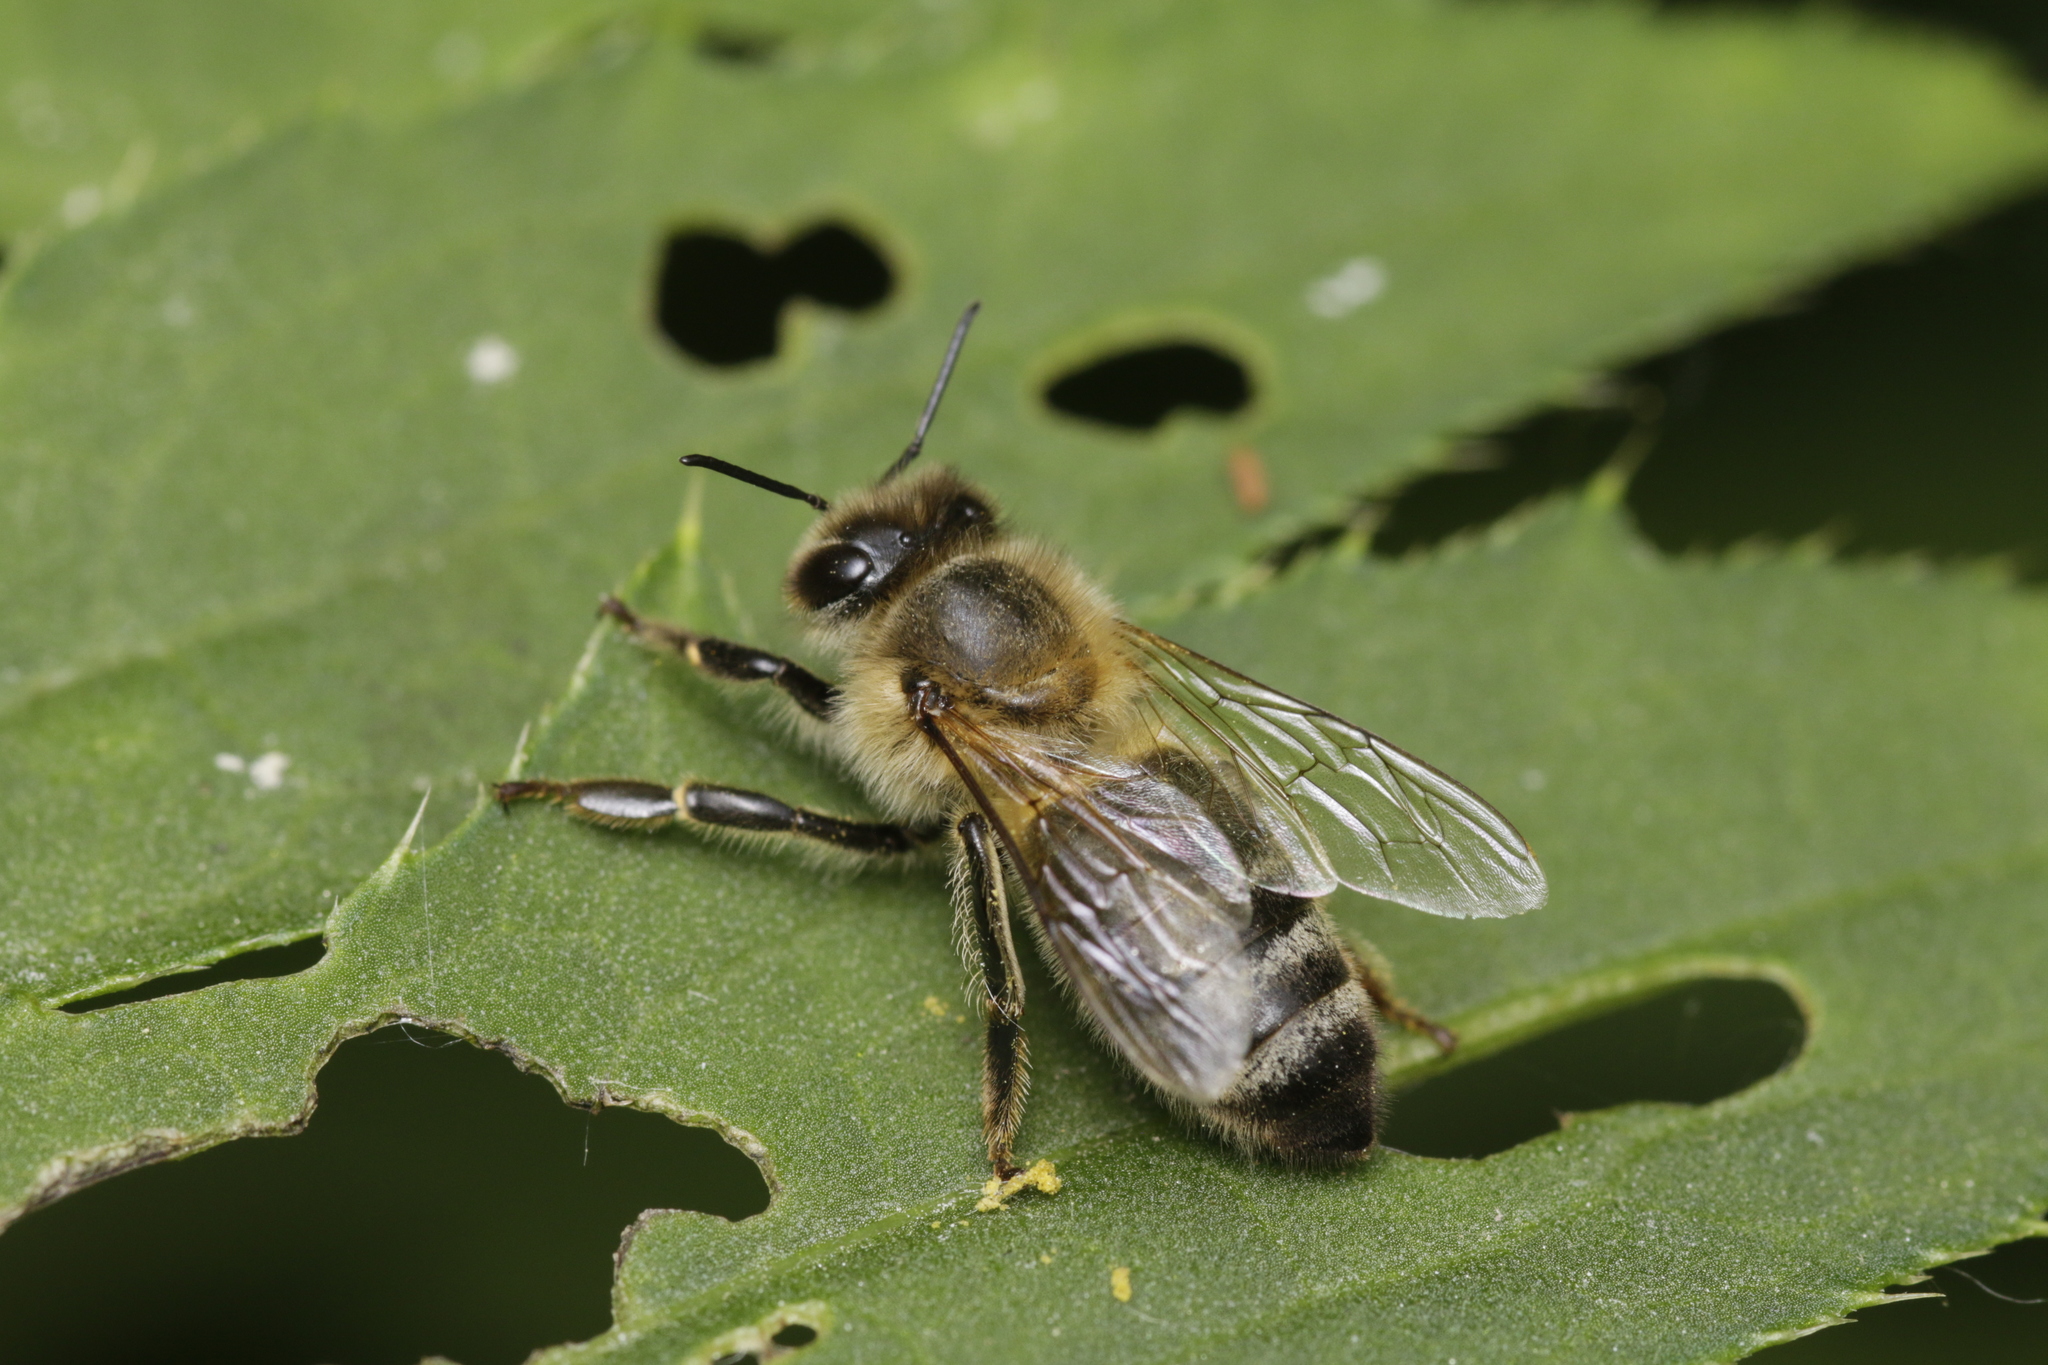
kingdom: Animalia
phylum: Arthropoda
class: Insecta
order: Hymenoptera
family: Apidae
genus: Apis
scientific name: Apis mellifera
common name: Honey bee
